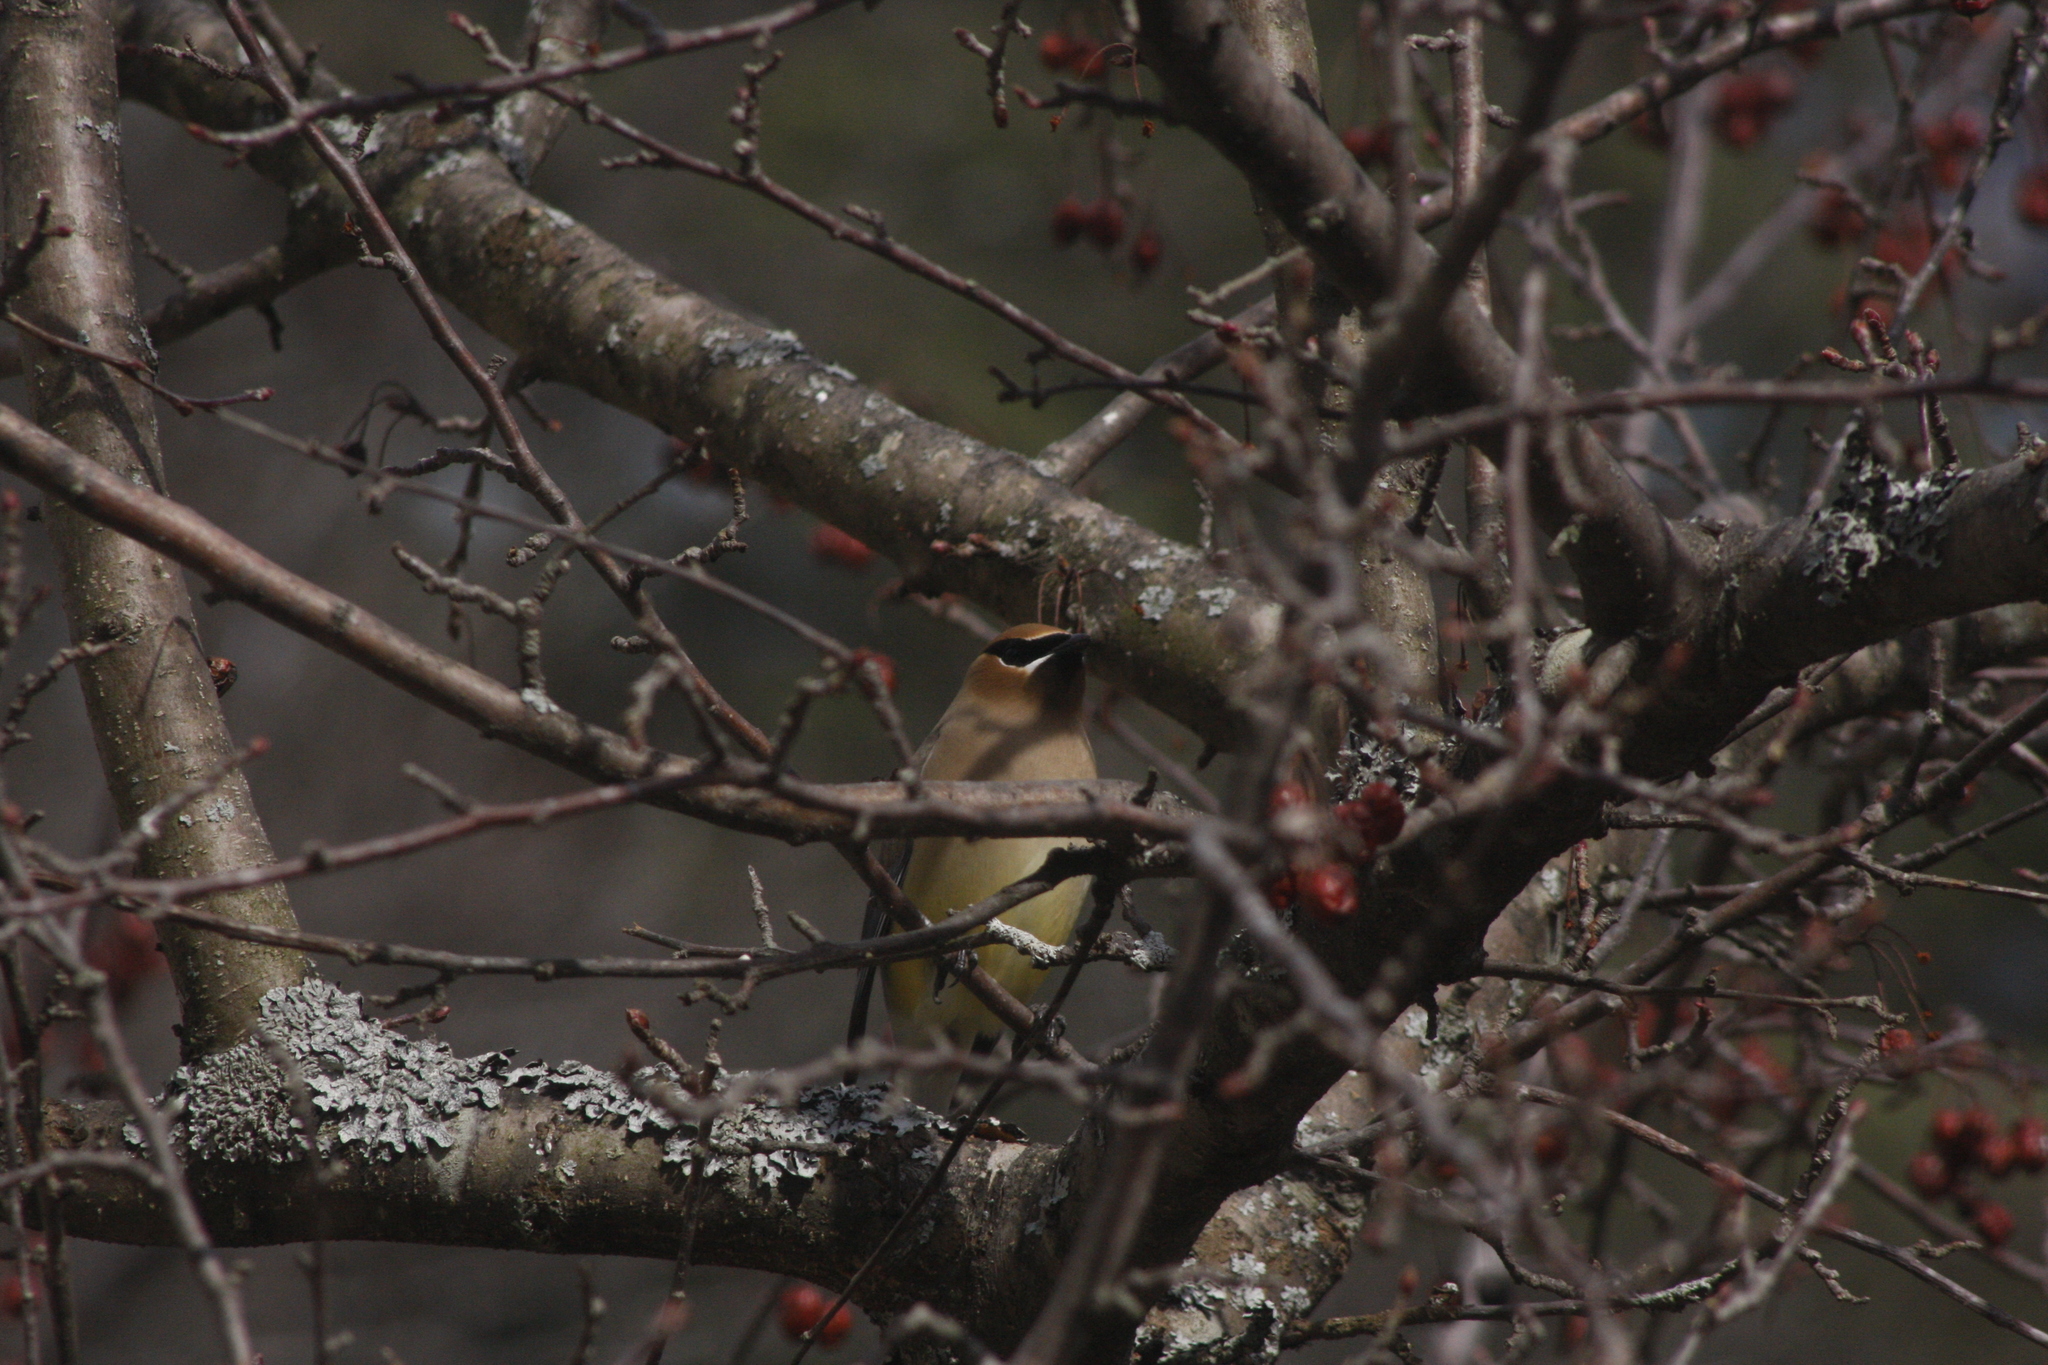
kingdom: Animalia
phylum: Chordata
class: Aves
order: Passeriformes
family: Bombycillidae
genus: Bombycilla
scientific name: Bombycilla cedrorum
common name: Cedar waxwing
